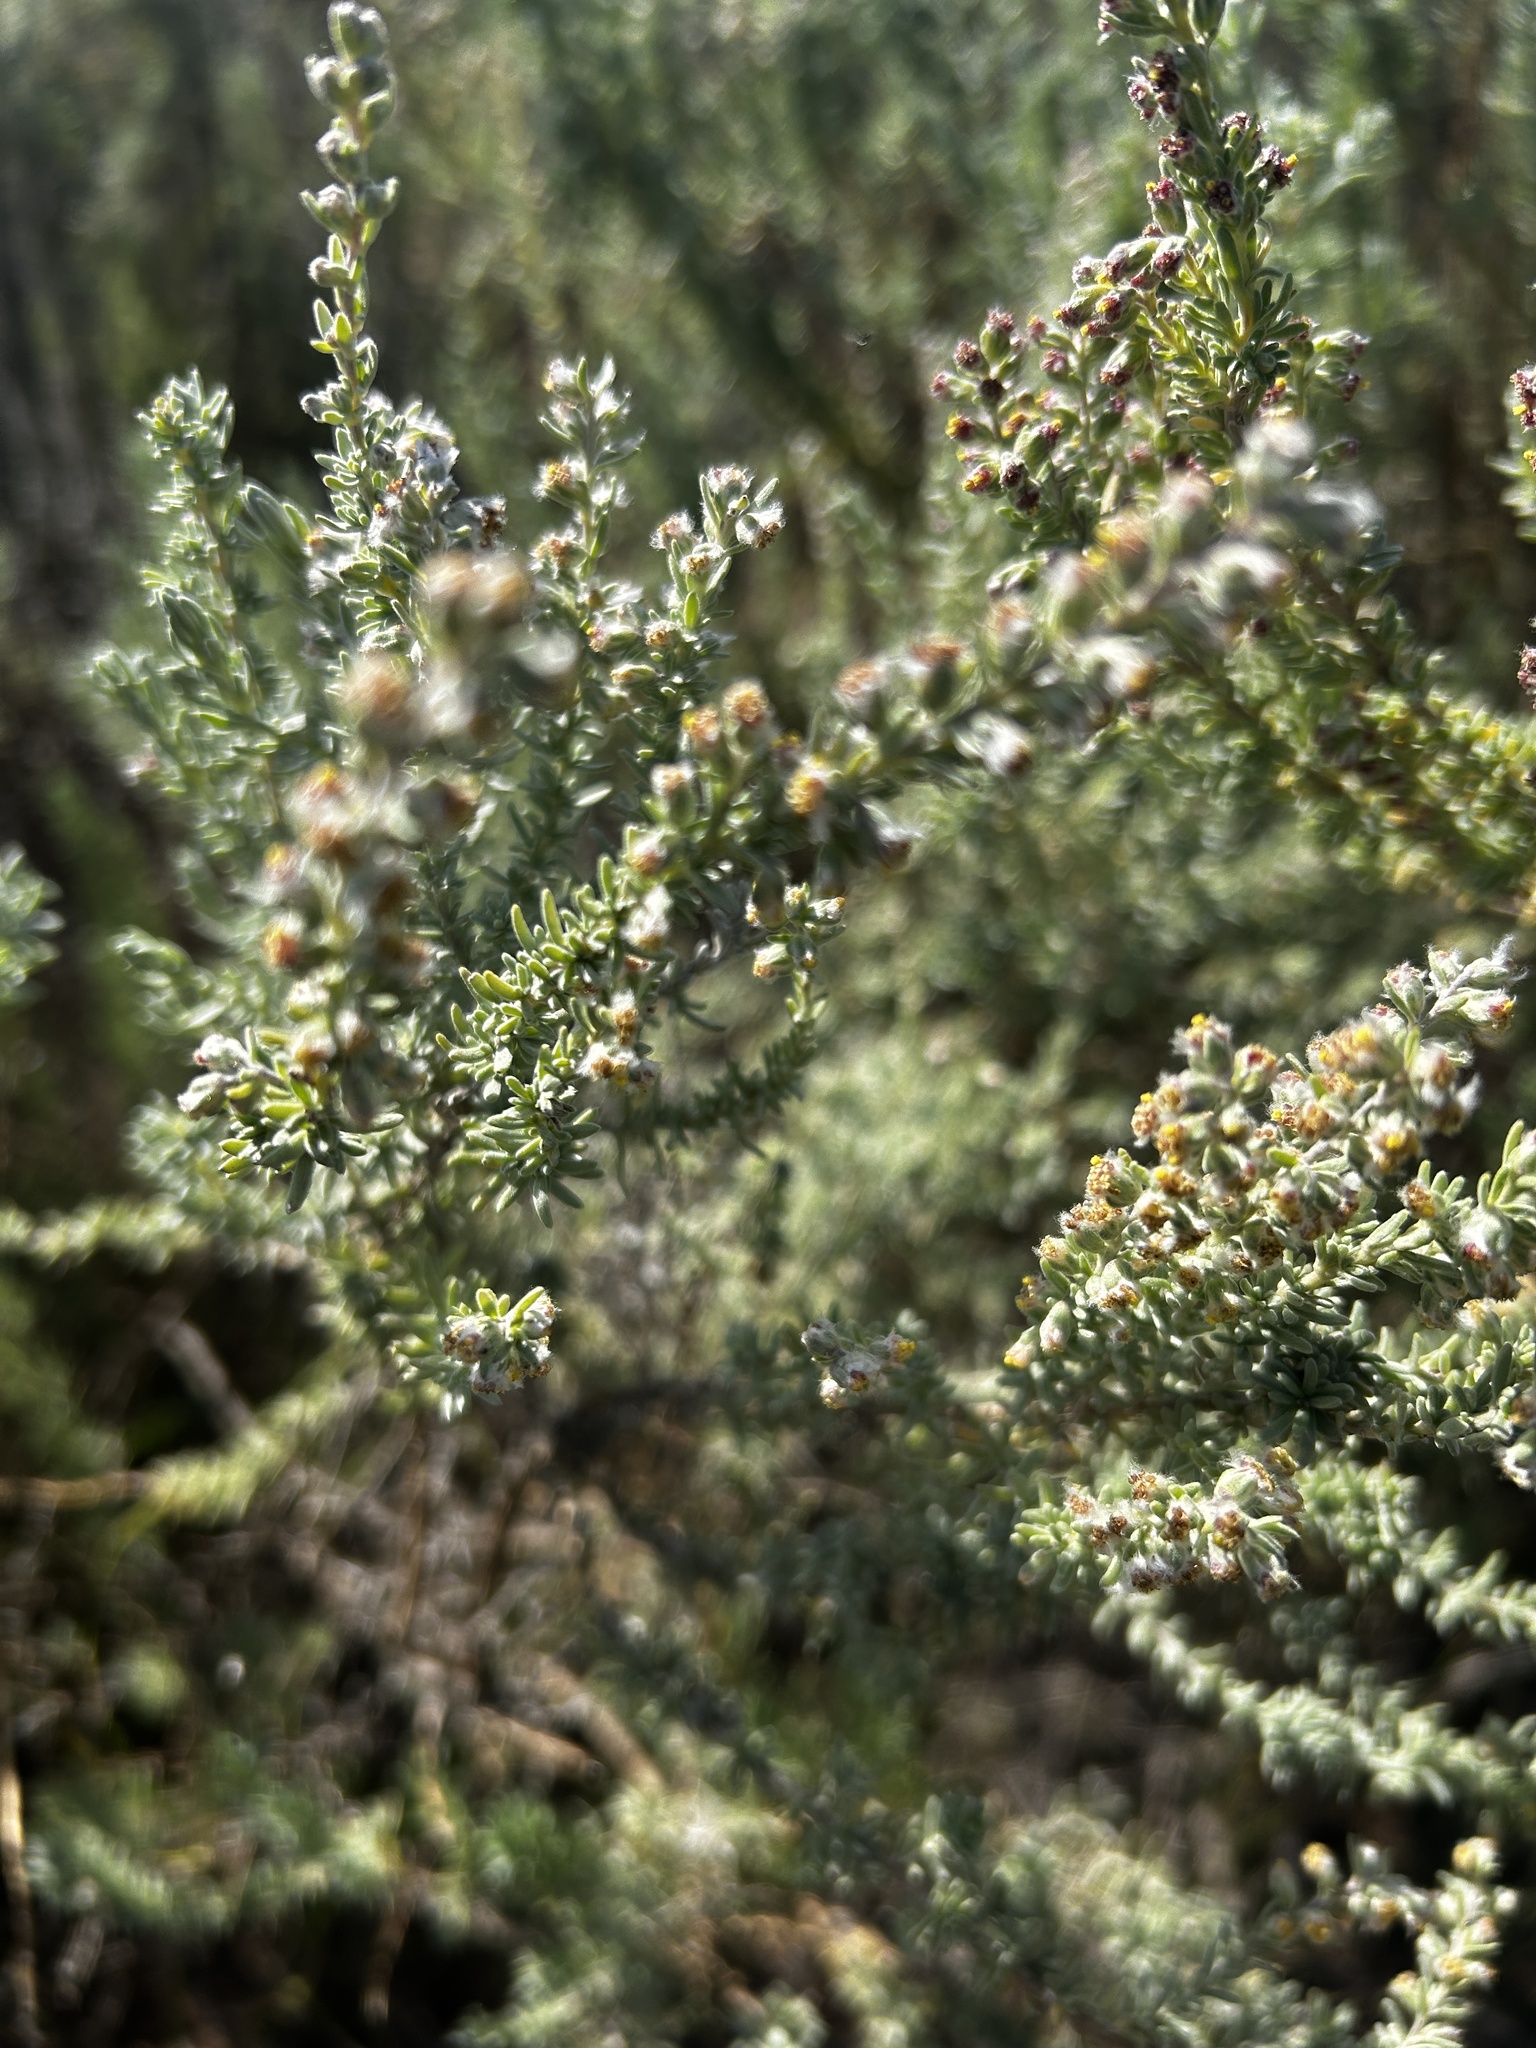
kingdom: Plantae
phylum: Tracheophyta
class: Magnoliopsida
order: Asterales
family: Asteraceae
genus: Eriocephalus
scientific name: Eriocephalus racemosus
